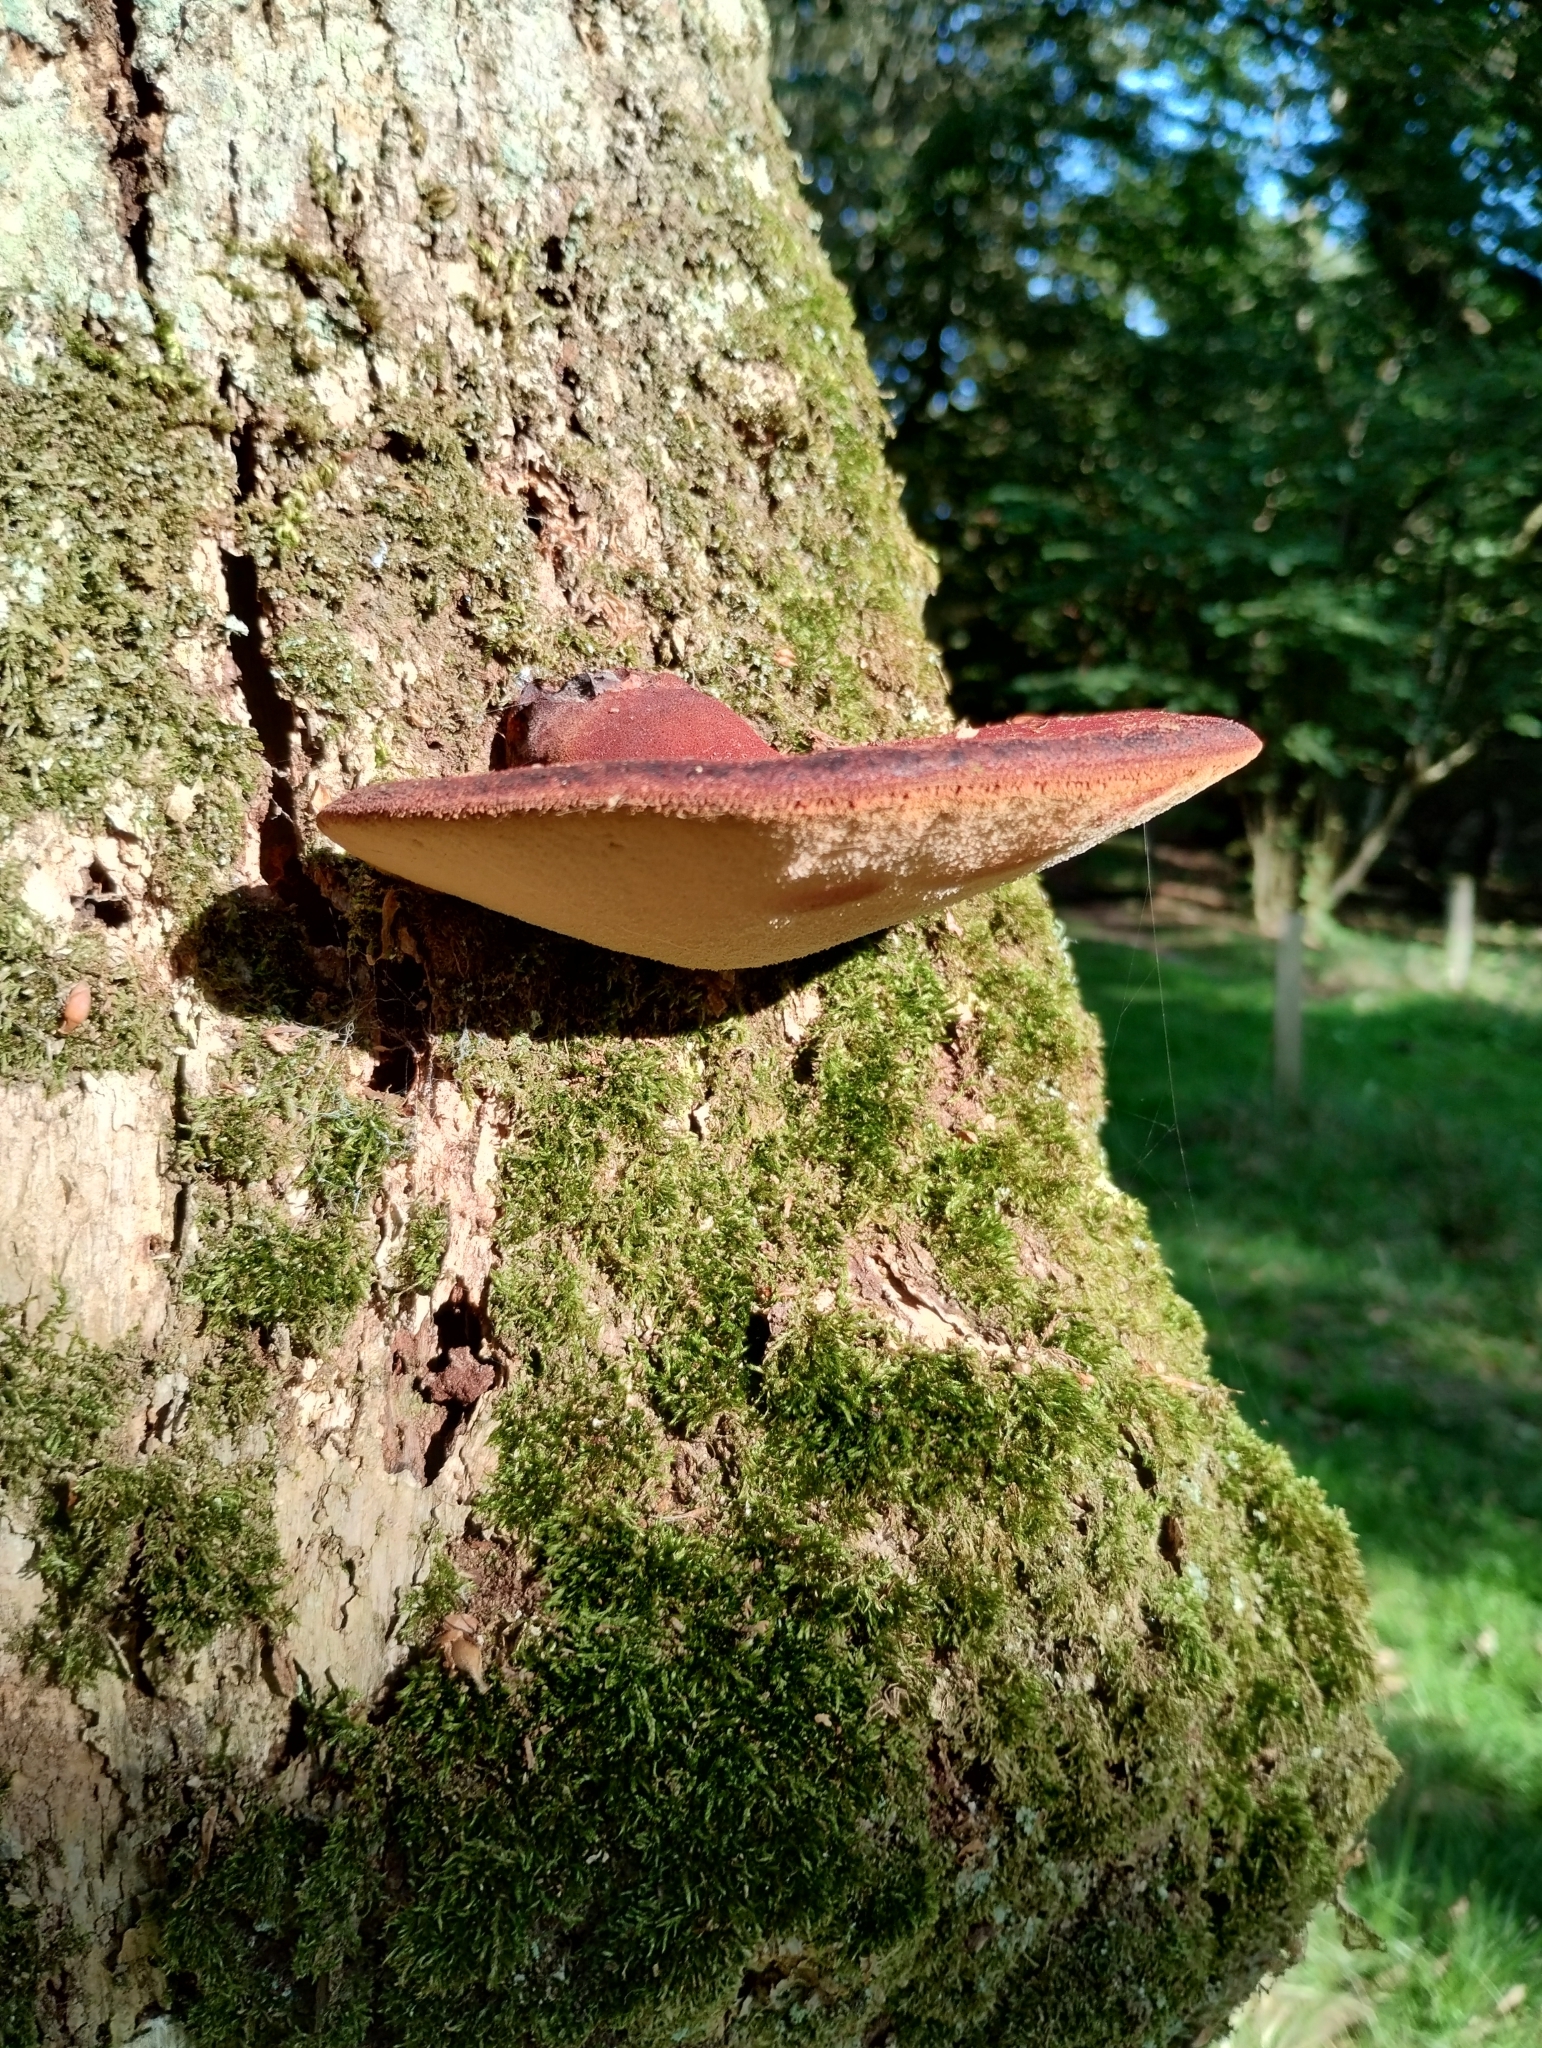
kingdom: Fungi
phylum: Basidiomycota
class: Agaricomycetes
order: Agaricales
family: Fistulinaceae
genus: Fistulina
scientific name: Fistulina hepatica
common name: Beef-steak fungus
